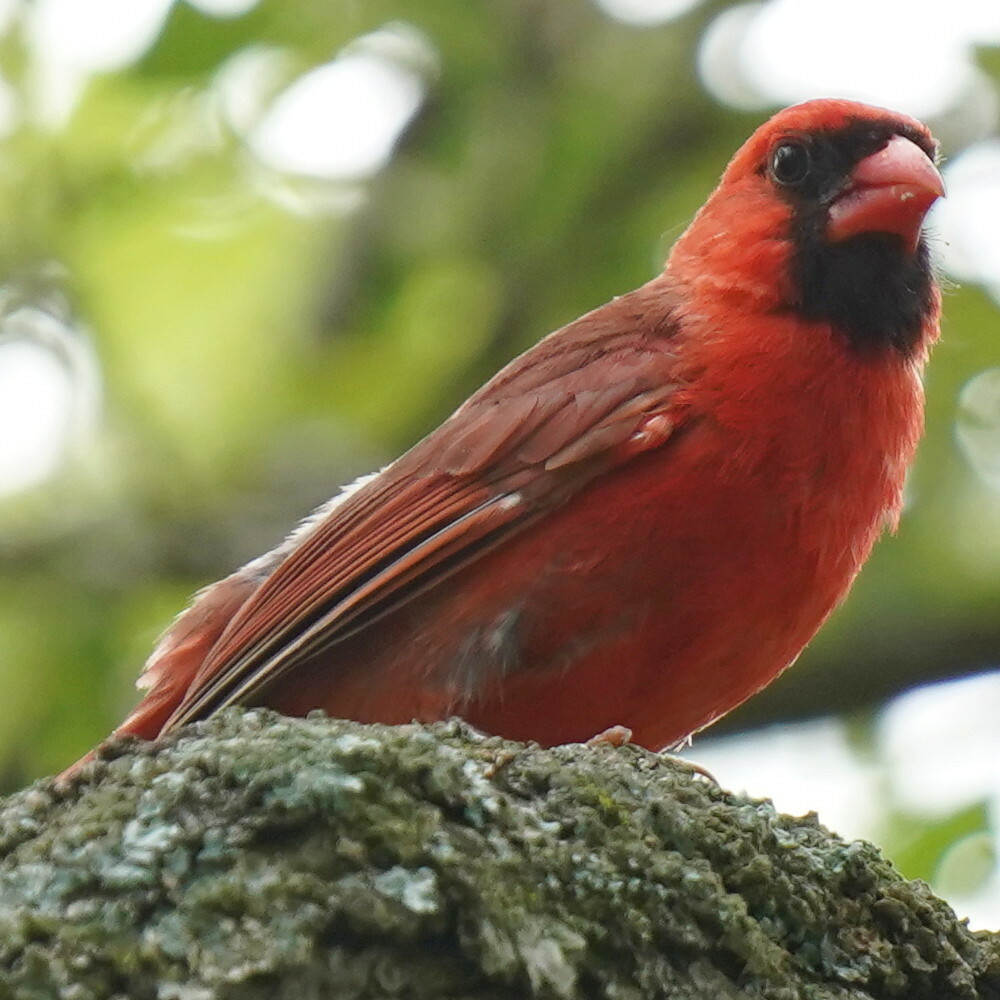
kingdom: Animalia
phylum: Chordata
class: Aves
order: Passeriformes
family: Cardinalidae
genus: Cardinalis
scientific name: Cardinalis cardinalis
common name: Northern cardinal
